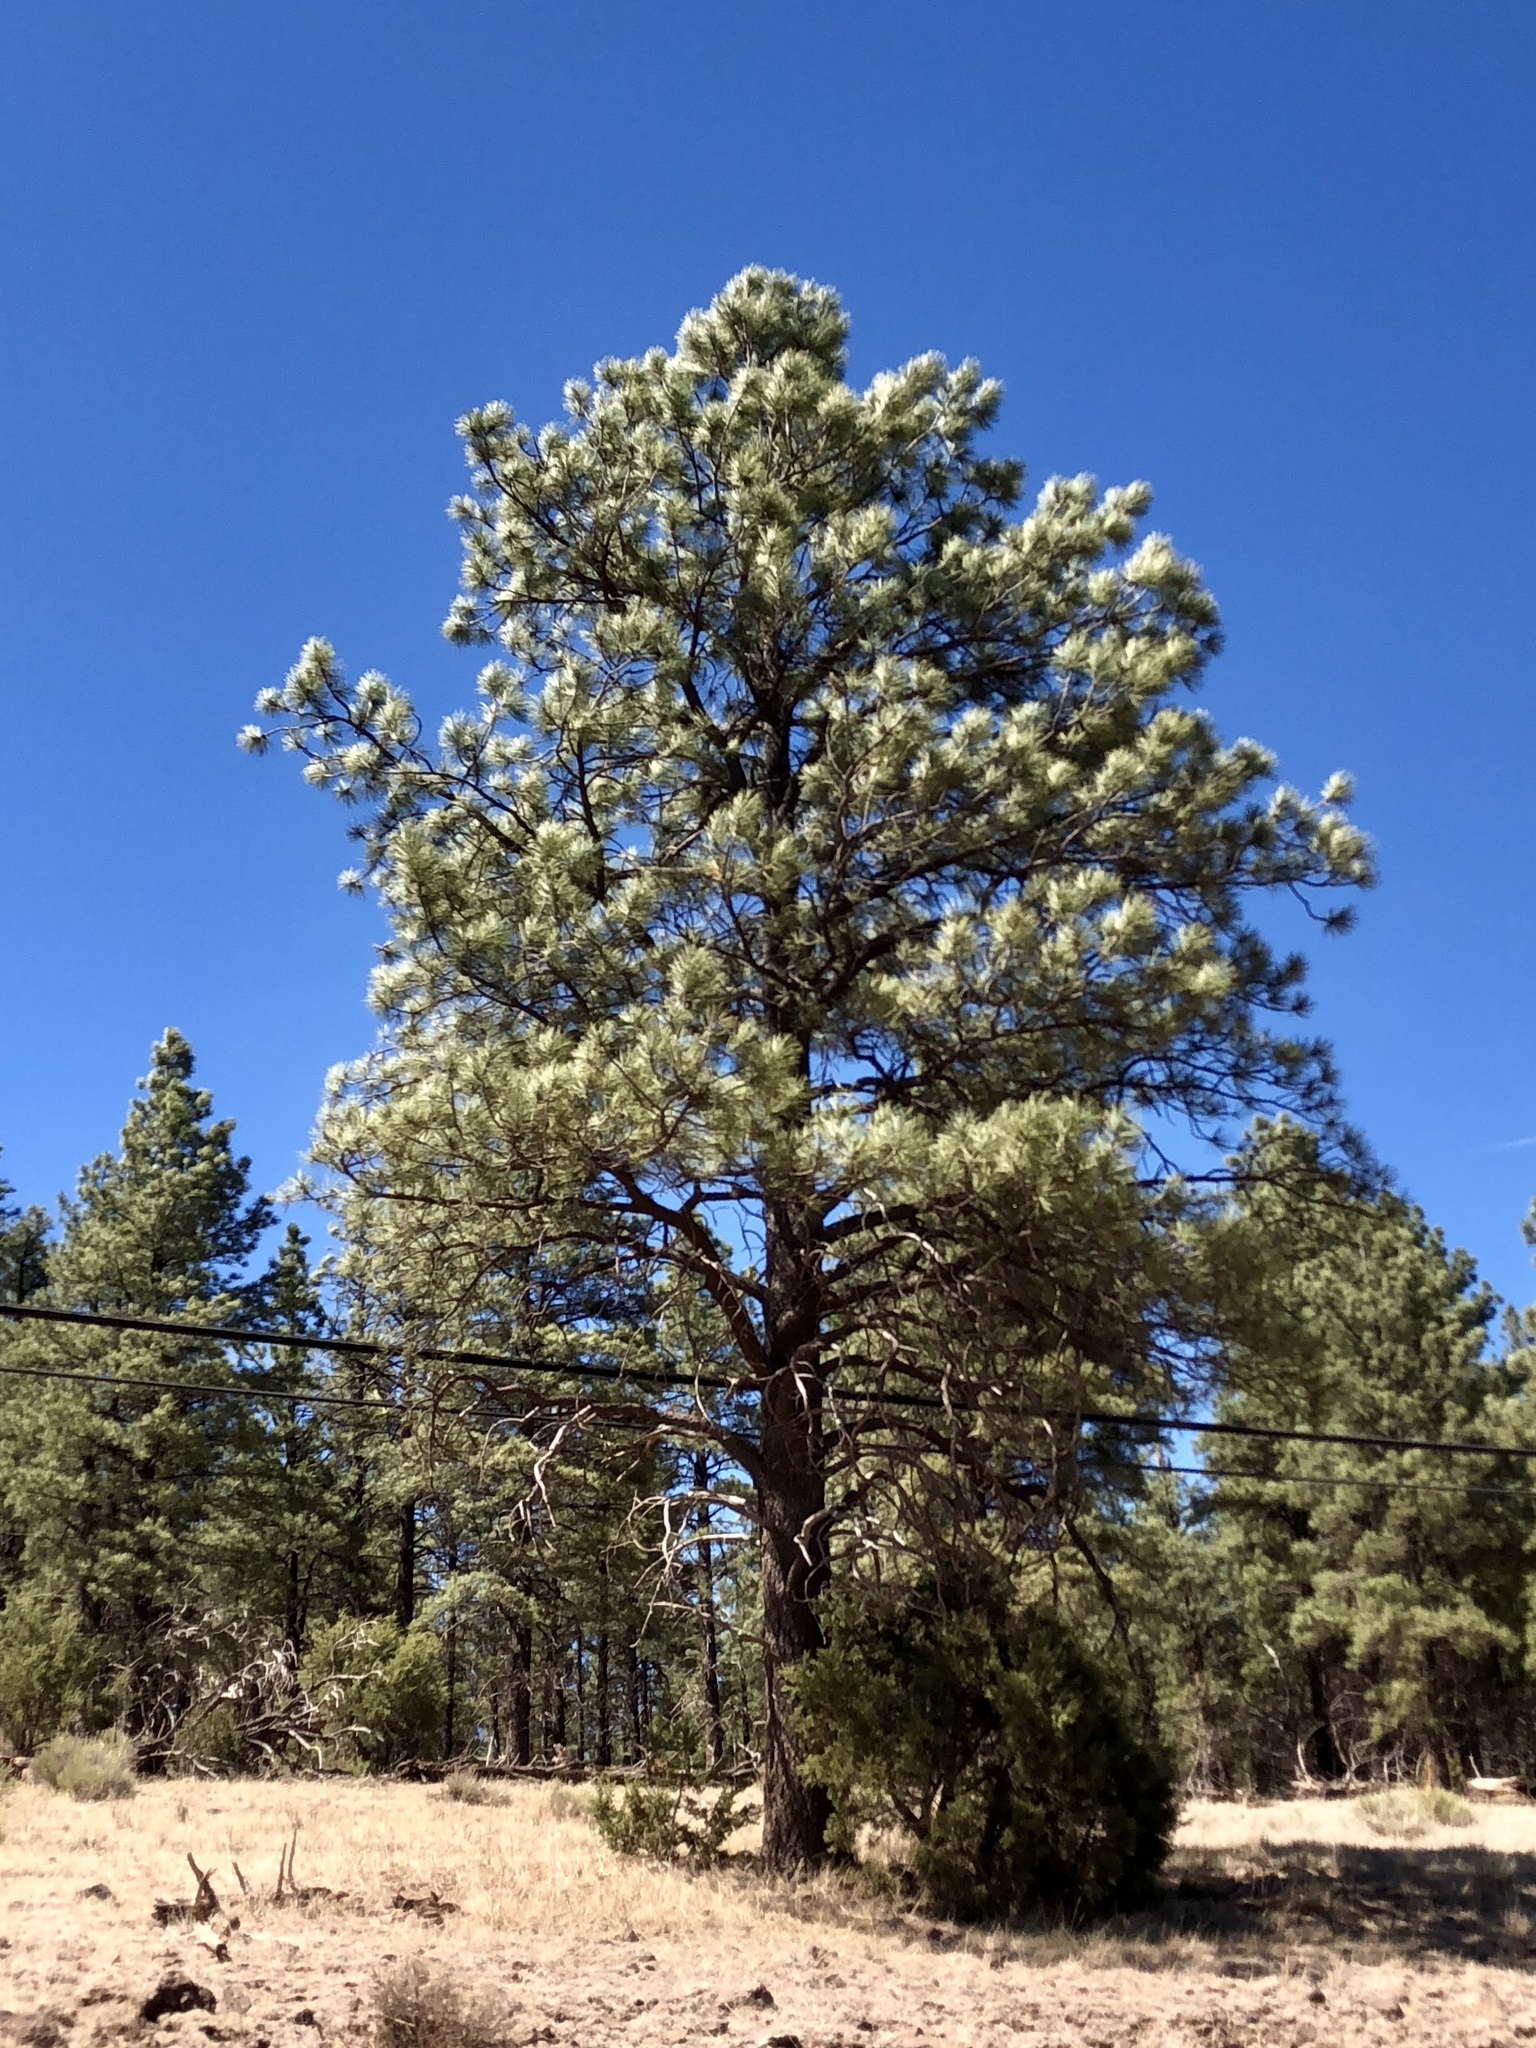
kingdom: Plantae
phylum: Tracheophyta
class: Pinopsida
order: Pinales
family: Pinaceae
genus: Pinus
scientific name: Pinus ponderosa
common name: Western yellow-pine
